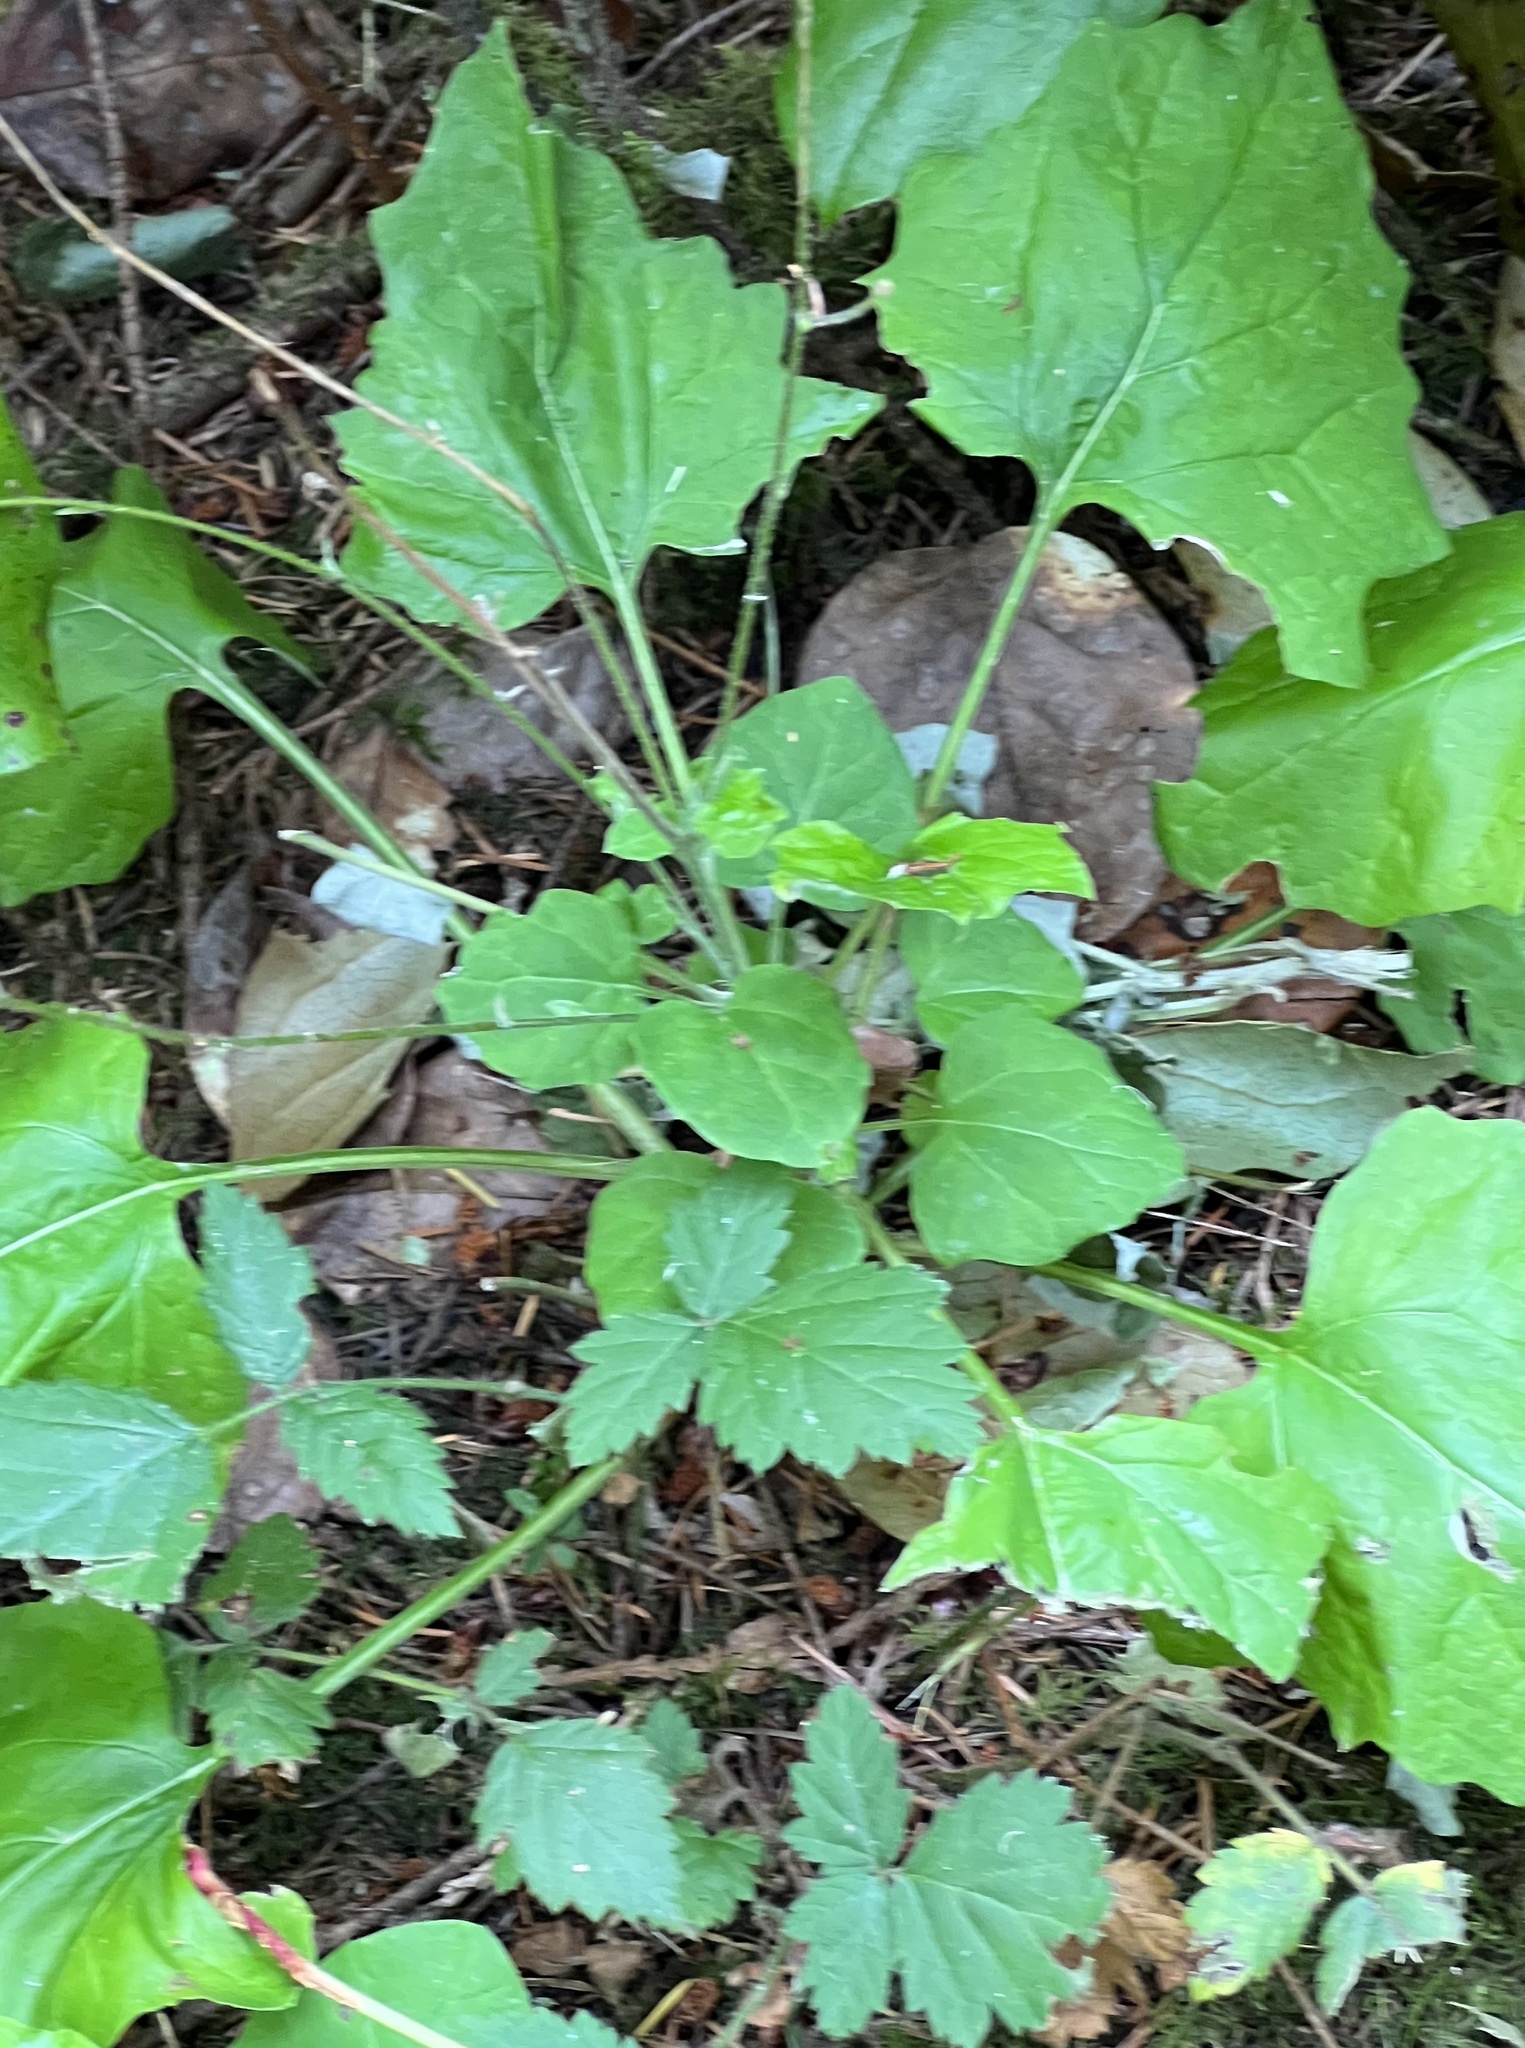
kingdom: Plantae
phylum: Tracheophyta
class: Magnoliopsida
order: Asterales
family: Asteraceae
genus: Adenocaulon
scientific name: Adenocaulon bicolor
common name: Trailplant
